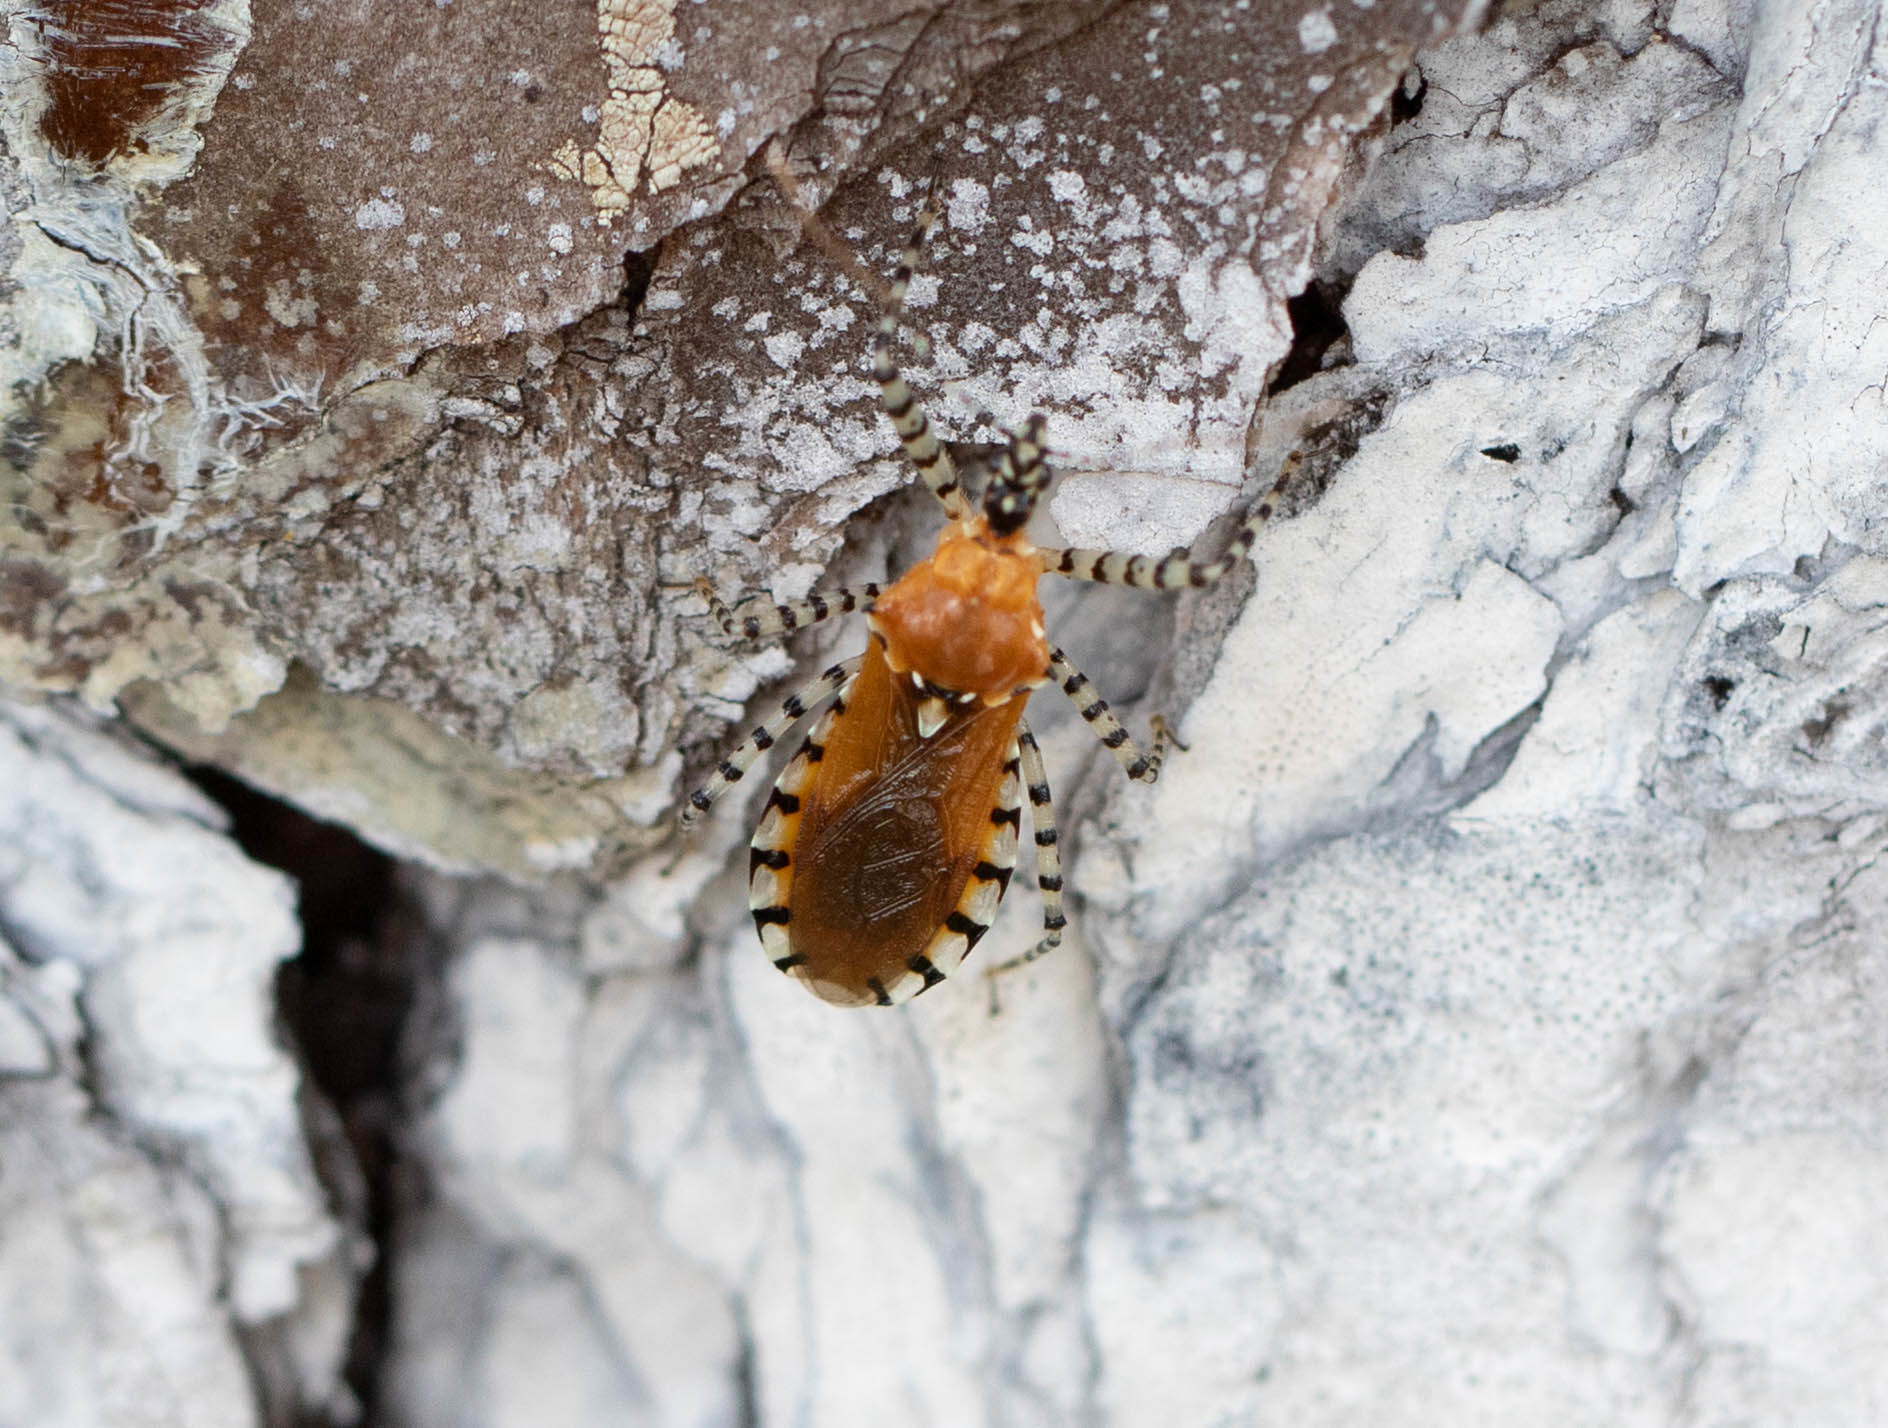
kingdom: Animalia
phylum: Arthropoda
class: Insecta
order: Hemiptera
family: Reduviidae
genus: Pselliopus
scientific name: Pselliopus cinctus
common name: Ringed assassin bug
